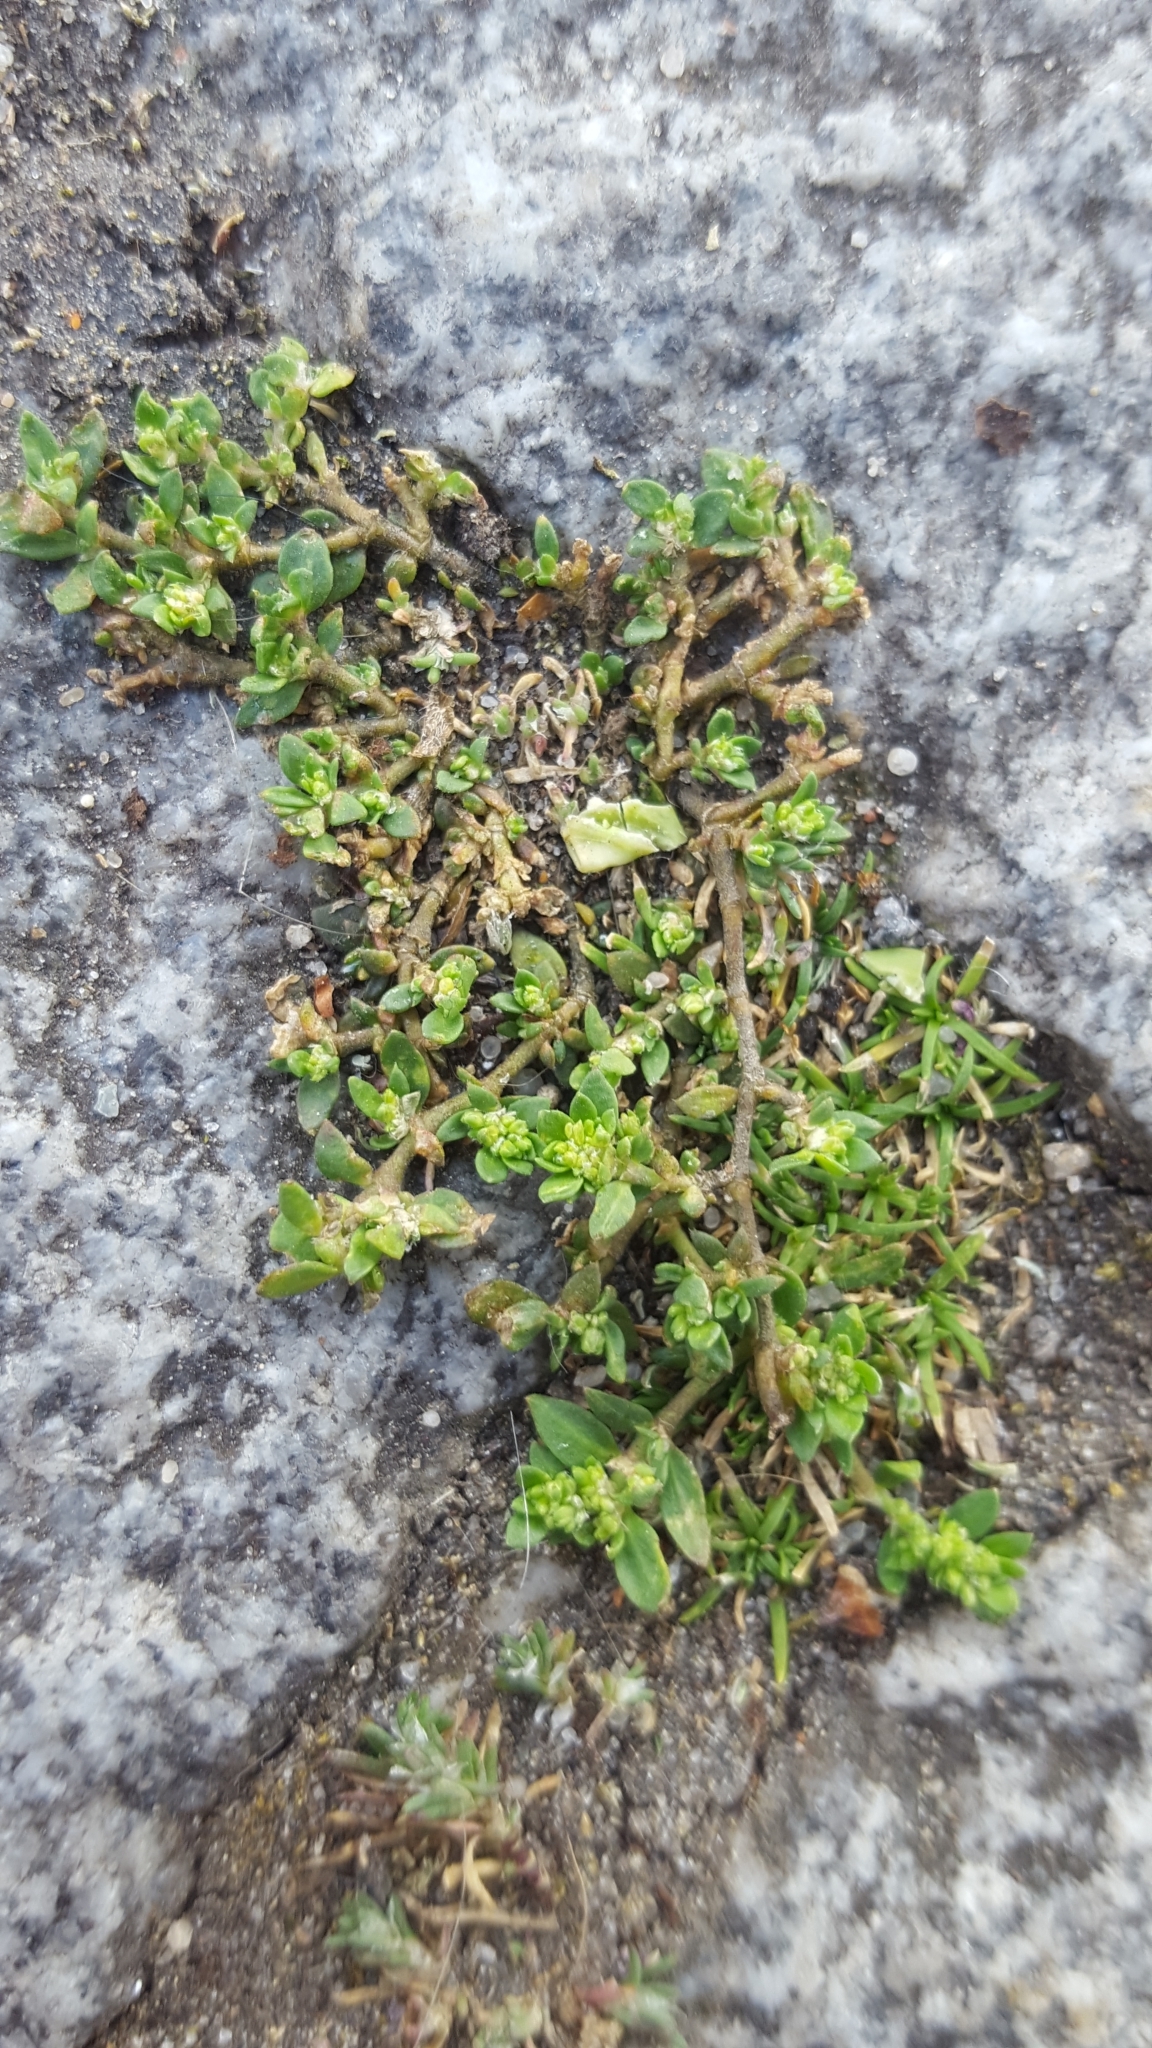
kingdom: Plantae
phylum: Tracheophyta
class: Magnoliopsida
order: Caryophyllales
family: Caryophyllaceae
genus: Herniaria
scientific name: Herniaria glabra
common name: Smooth rupturewort
